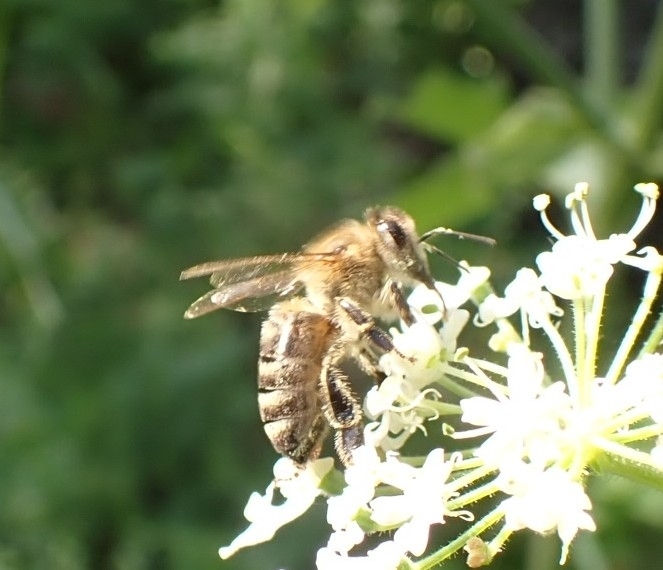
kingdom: Animalia
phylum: Arthropoda
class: Insecta
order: Hymenoptera
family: Apidae
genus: Apis
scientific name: Apis mellifera
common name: Honey bee
